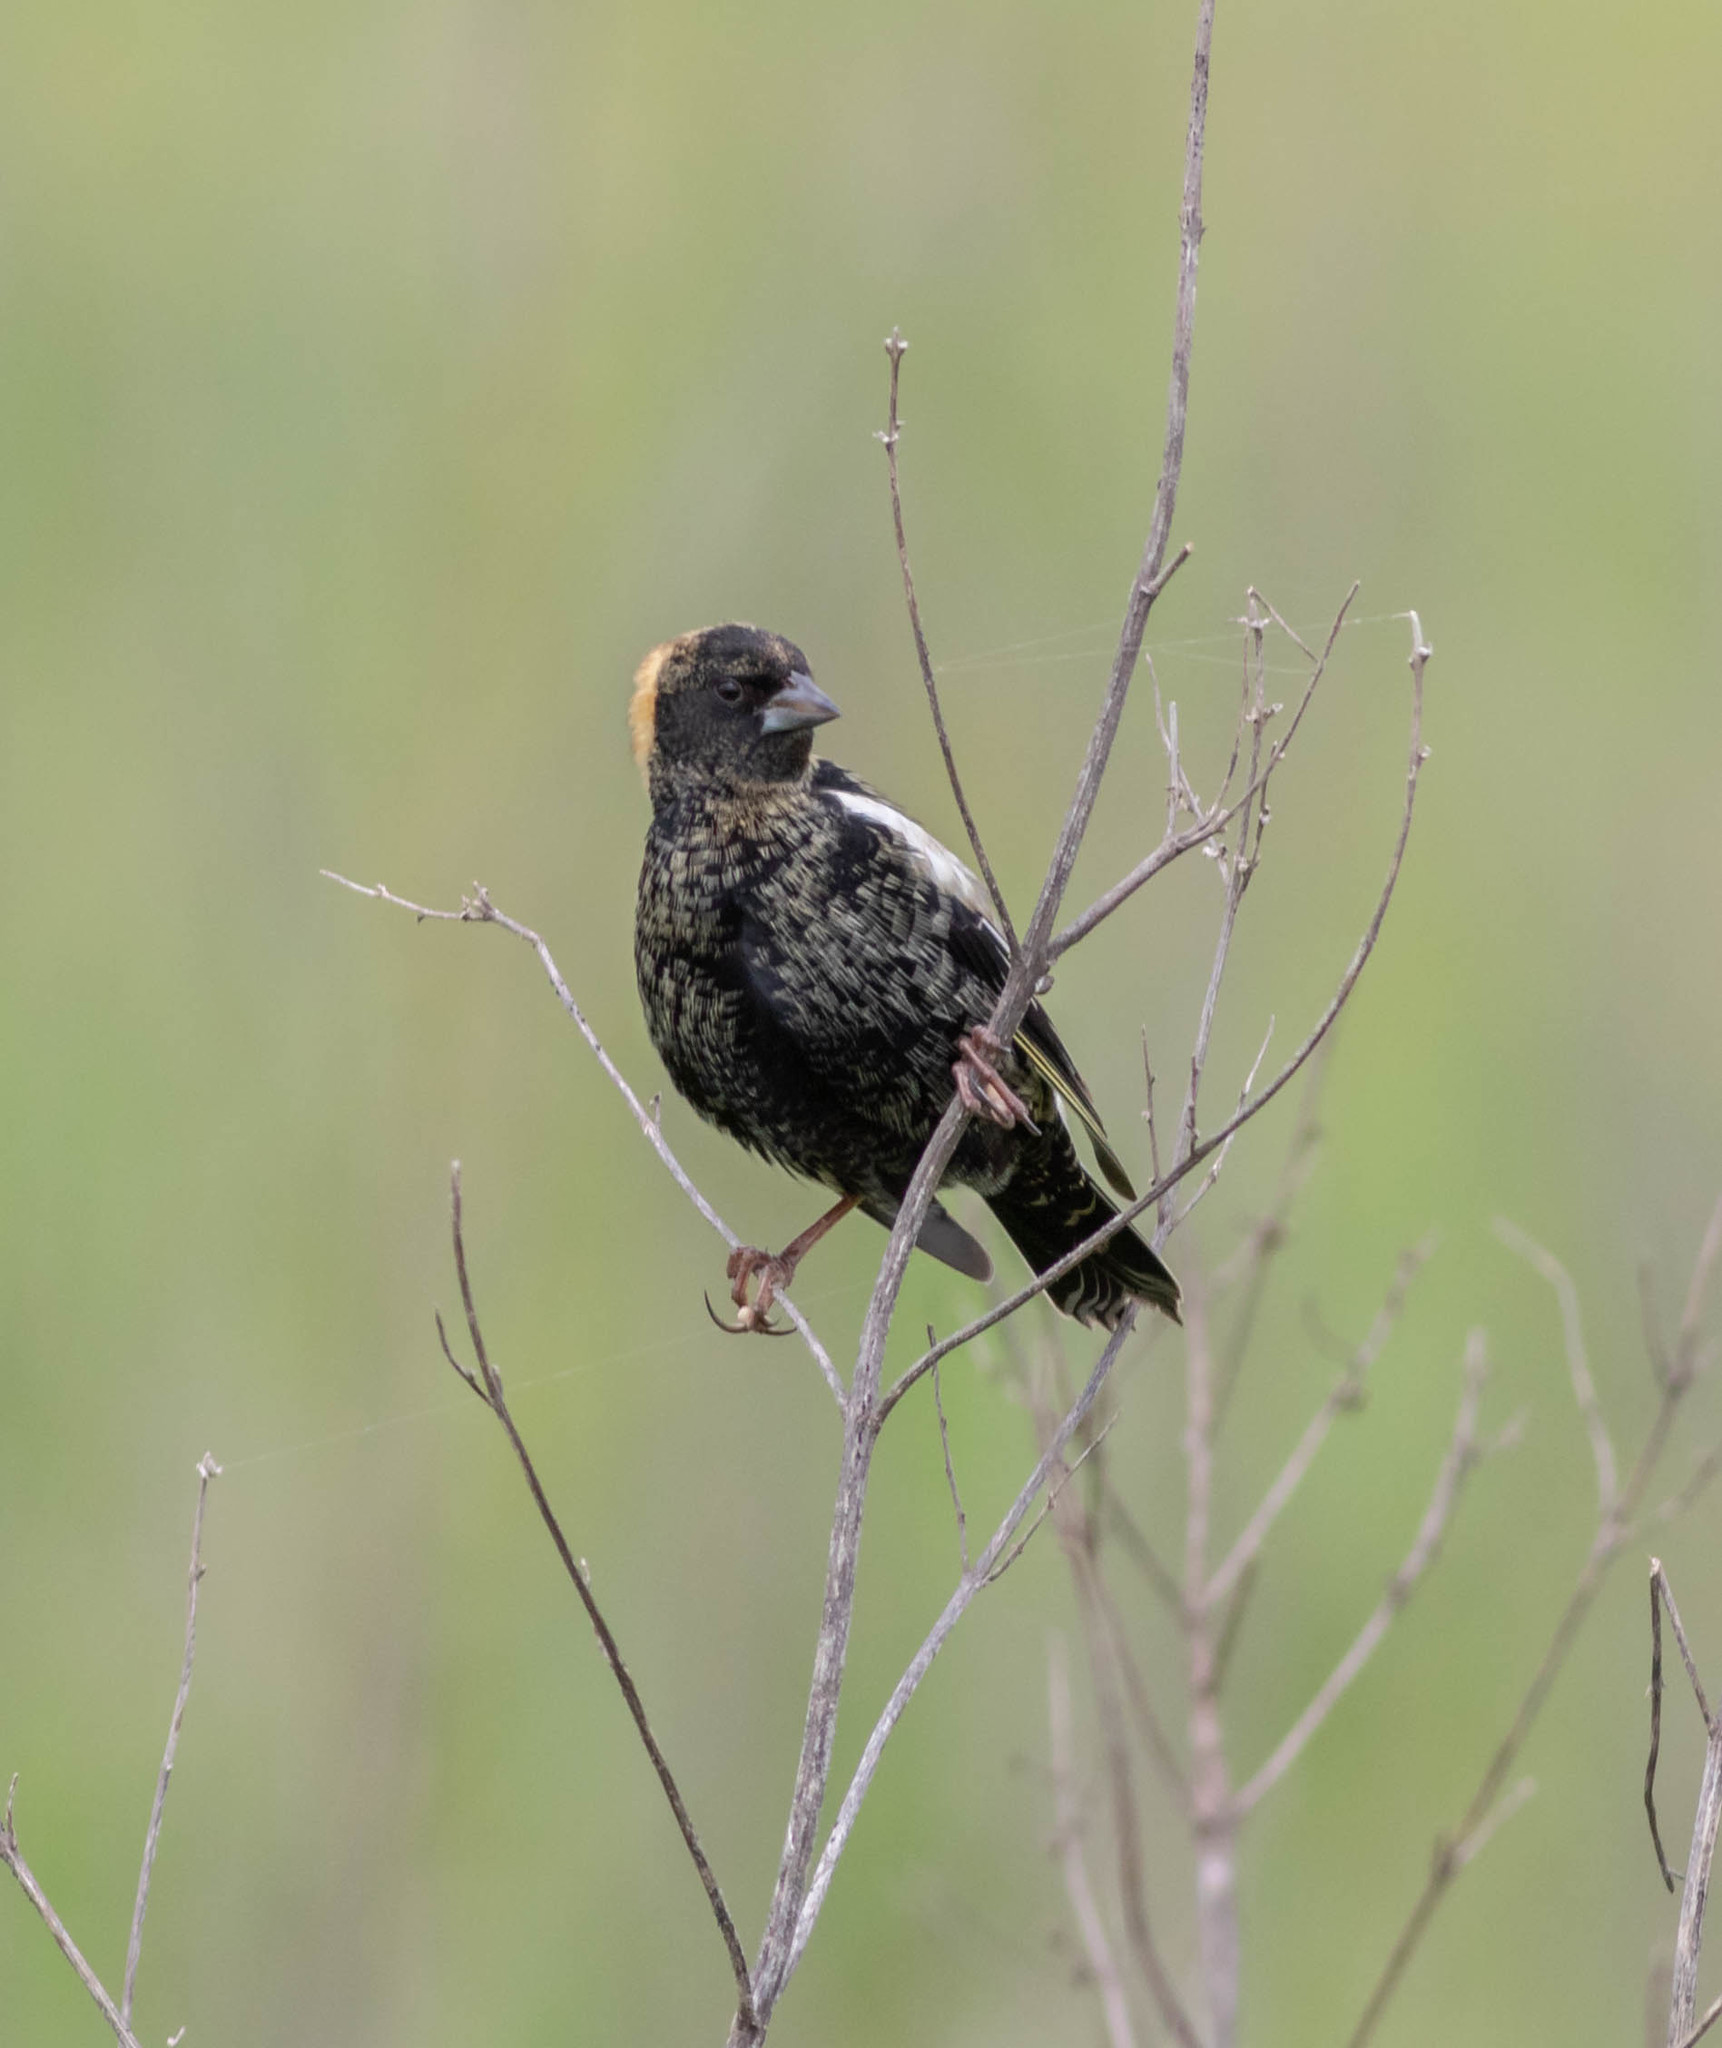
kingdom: Animalia
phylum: Chordata
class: Aves
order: Passeriformes
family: Icteridae
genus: Dolichonyx
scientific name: Dolichonyx oryzivorus
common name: Bobolink
